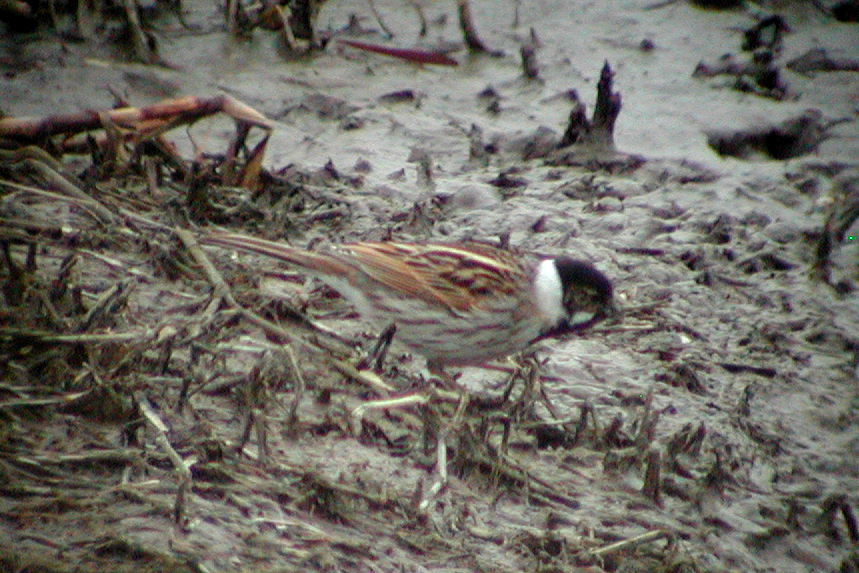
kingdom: Animalia
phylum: Chordata
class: Aves
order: Passeriformes
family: Emberizidae
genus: Emberiza
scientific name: Emberiza schoeniclus
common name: Reed bunting
